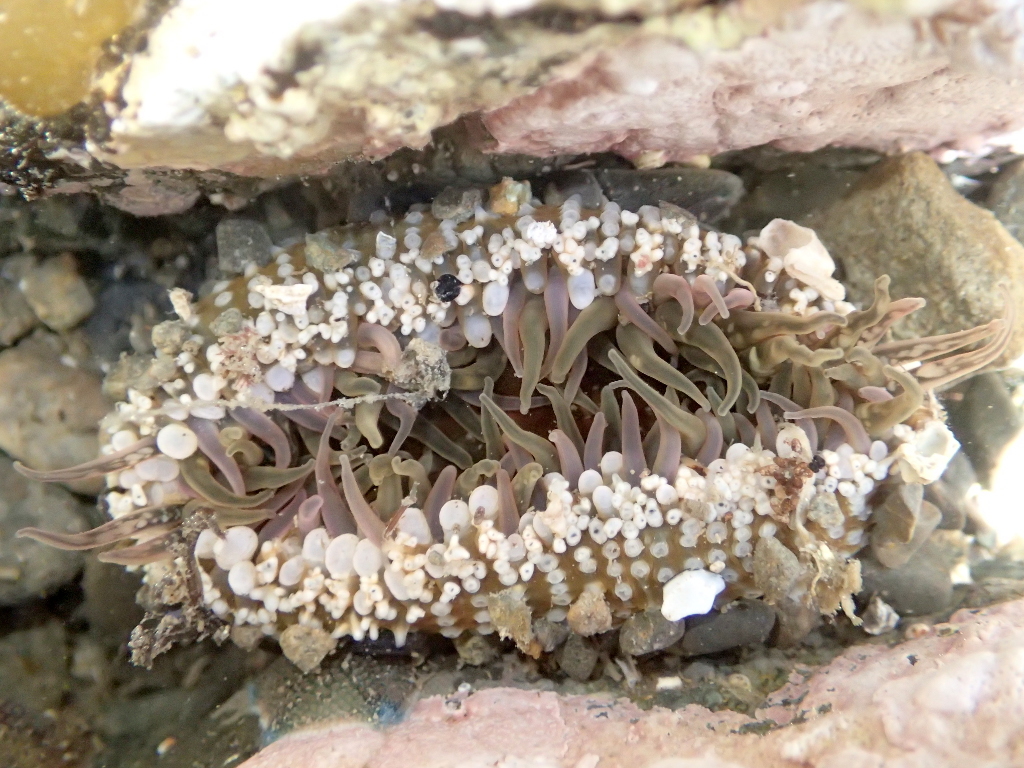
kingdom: Animalia
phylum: Cnidaria
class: Anthozoa
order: Actiniaria
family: Actiniidae
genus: Oulactis
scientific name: Oulactis muscosa
